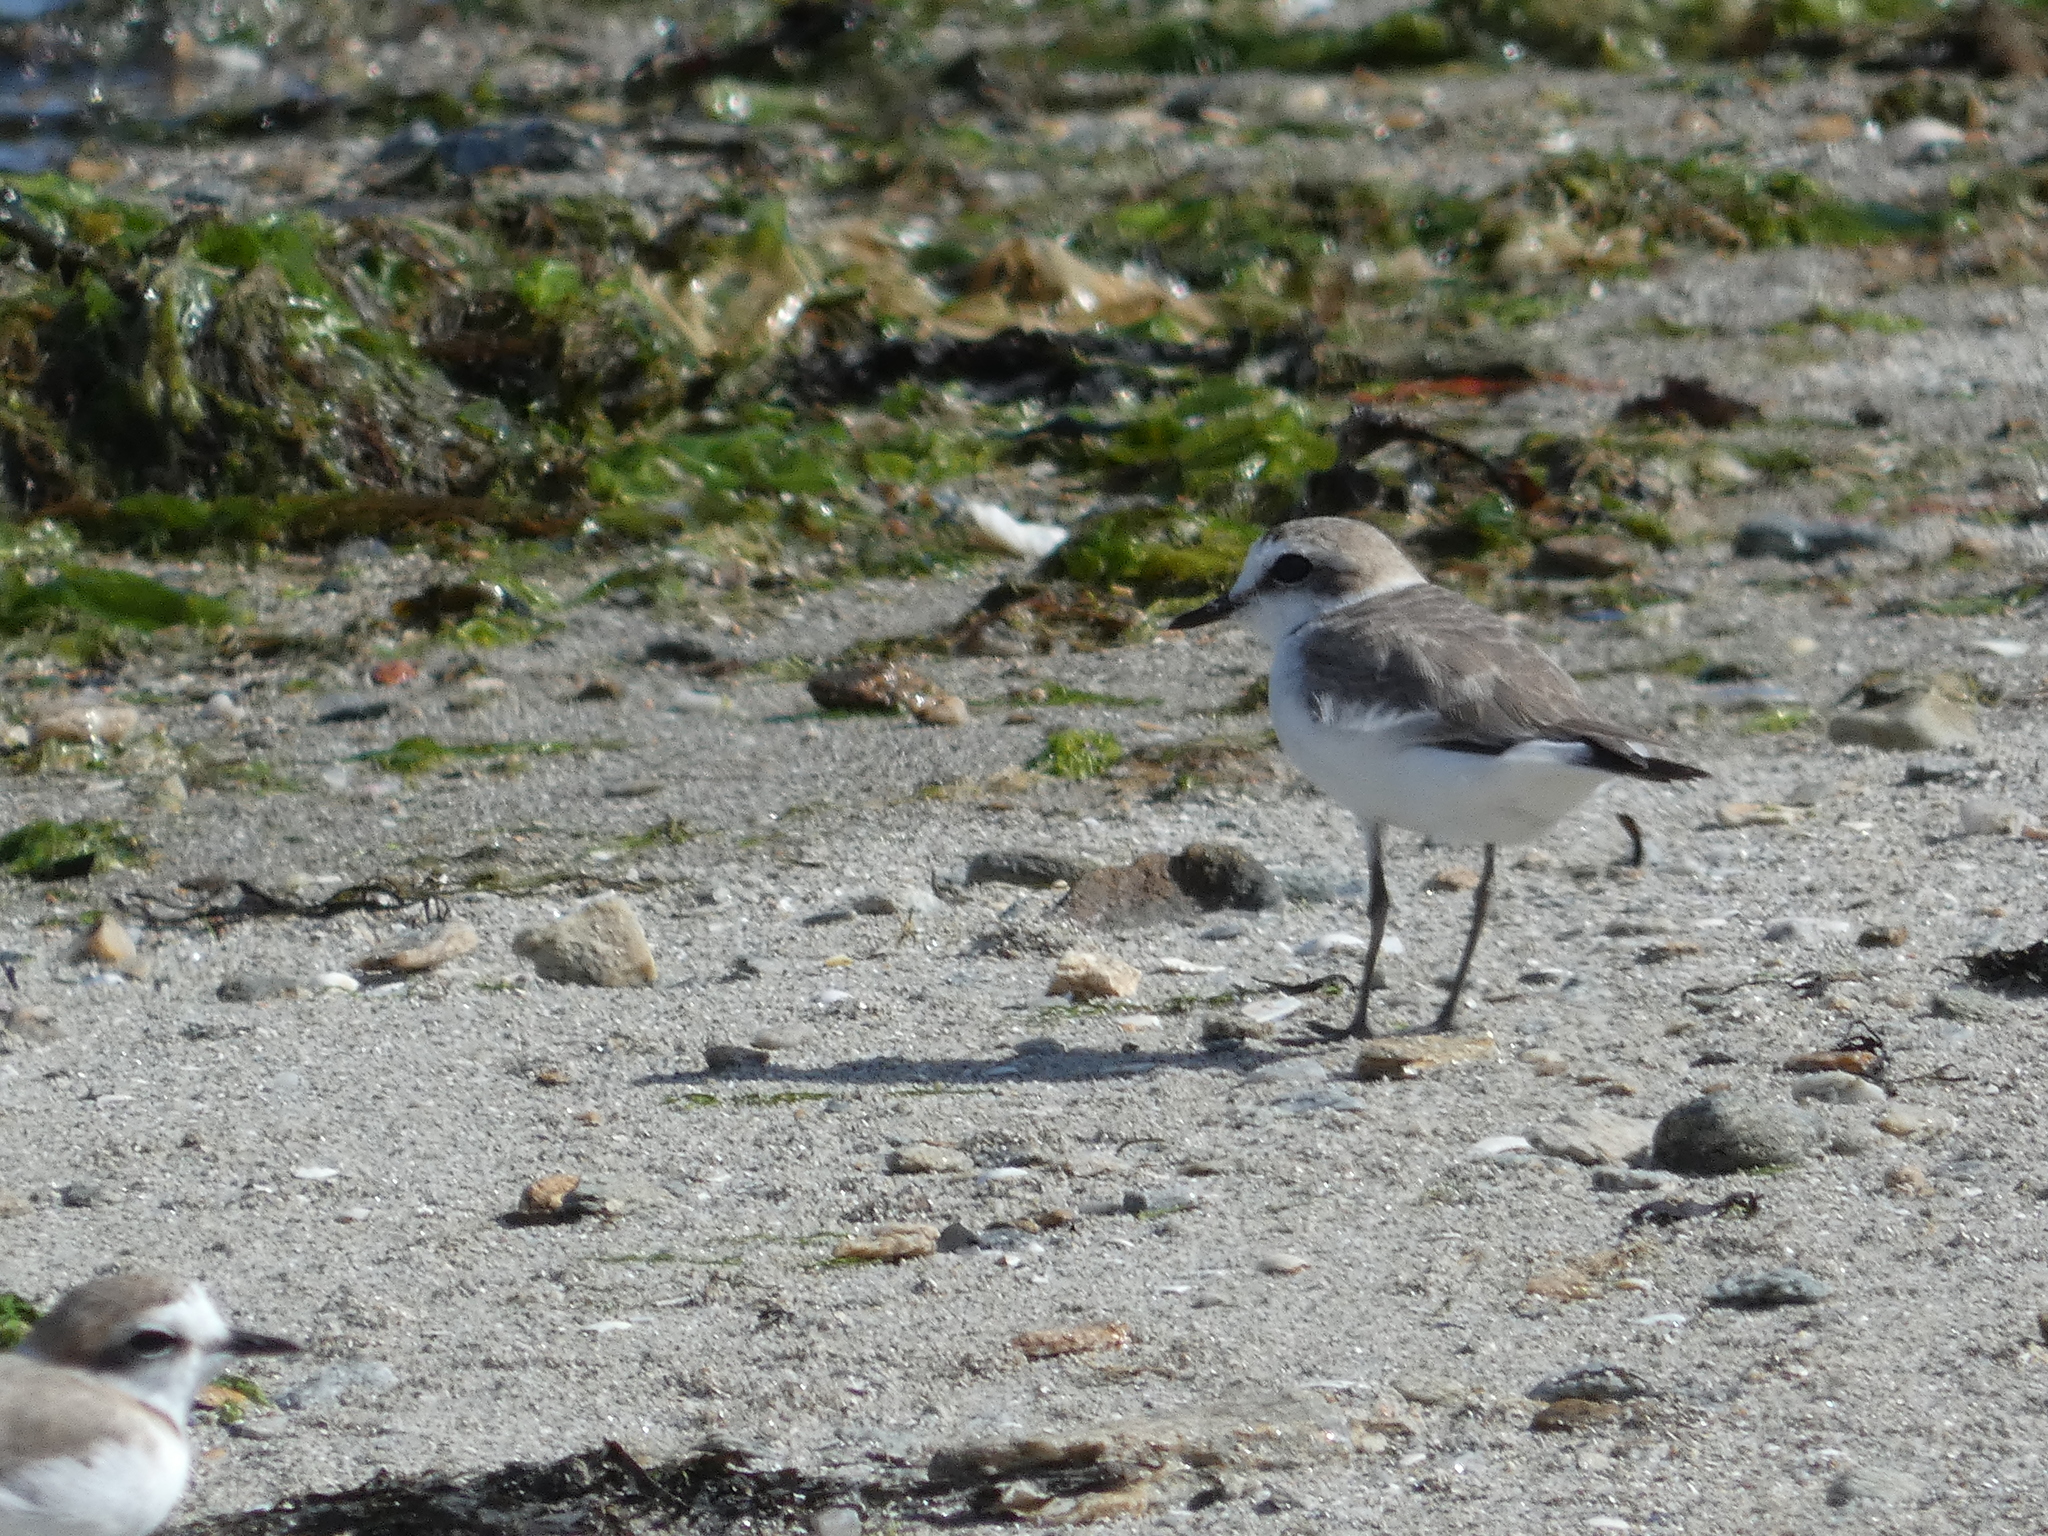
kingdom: Animalia
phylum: Chordata
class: Aves
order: Charadriiformes
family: Charadriidae
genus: Charadrius
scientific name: Charadrius alexandrinus
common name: Kentish plover
